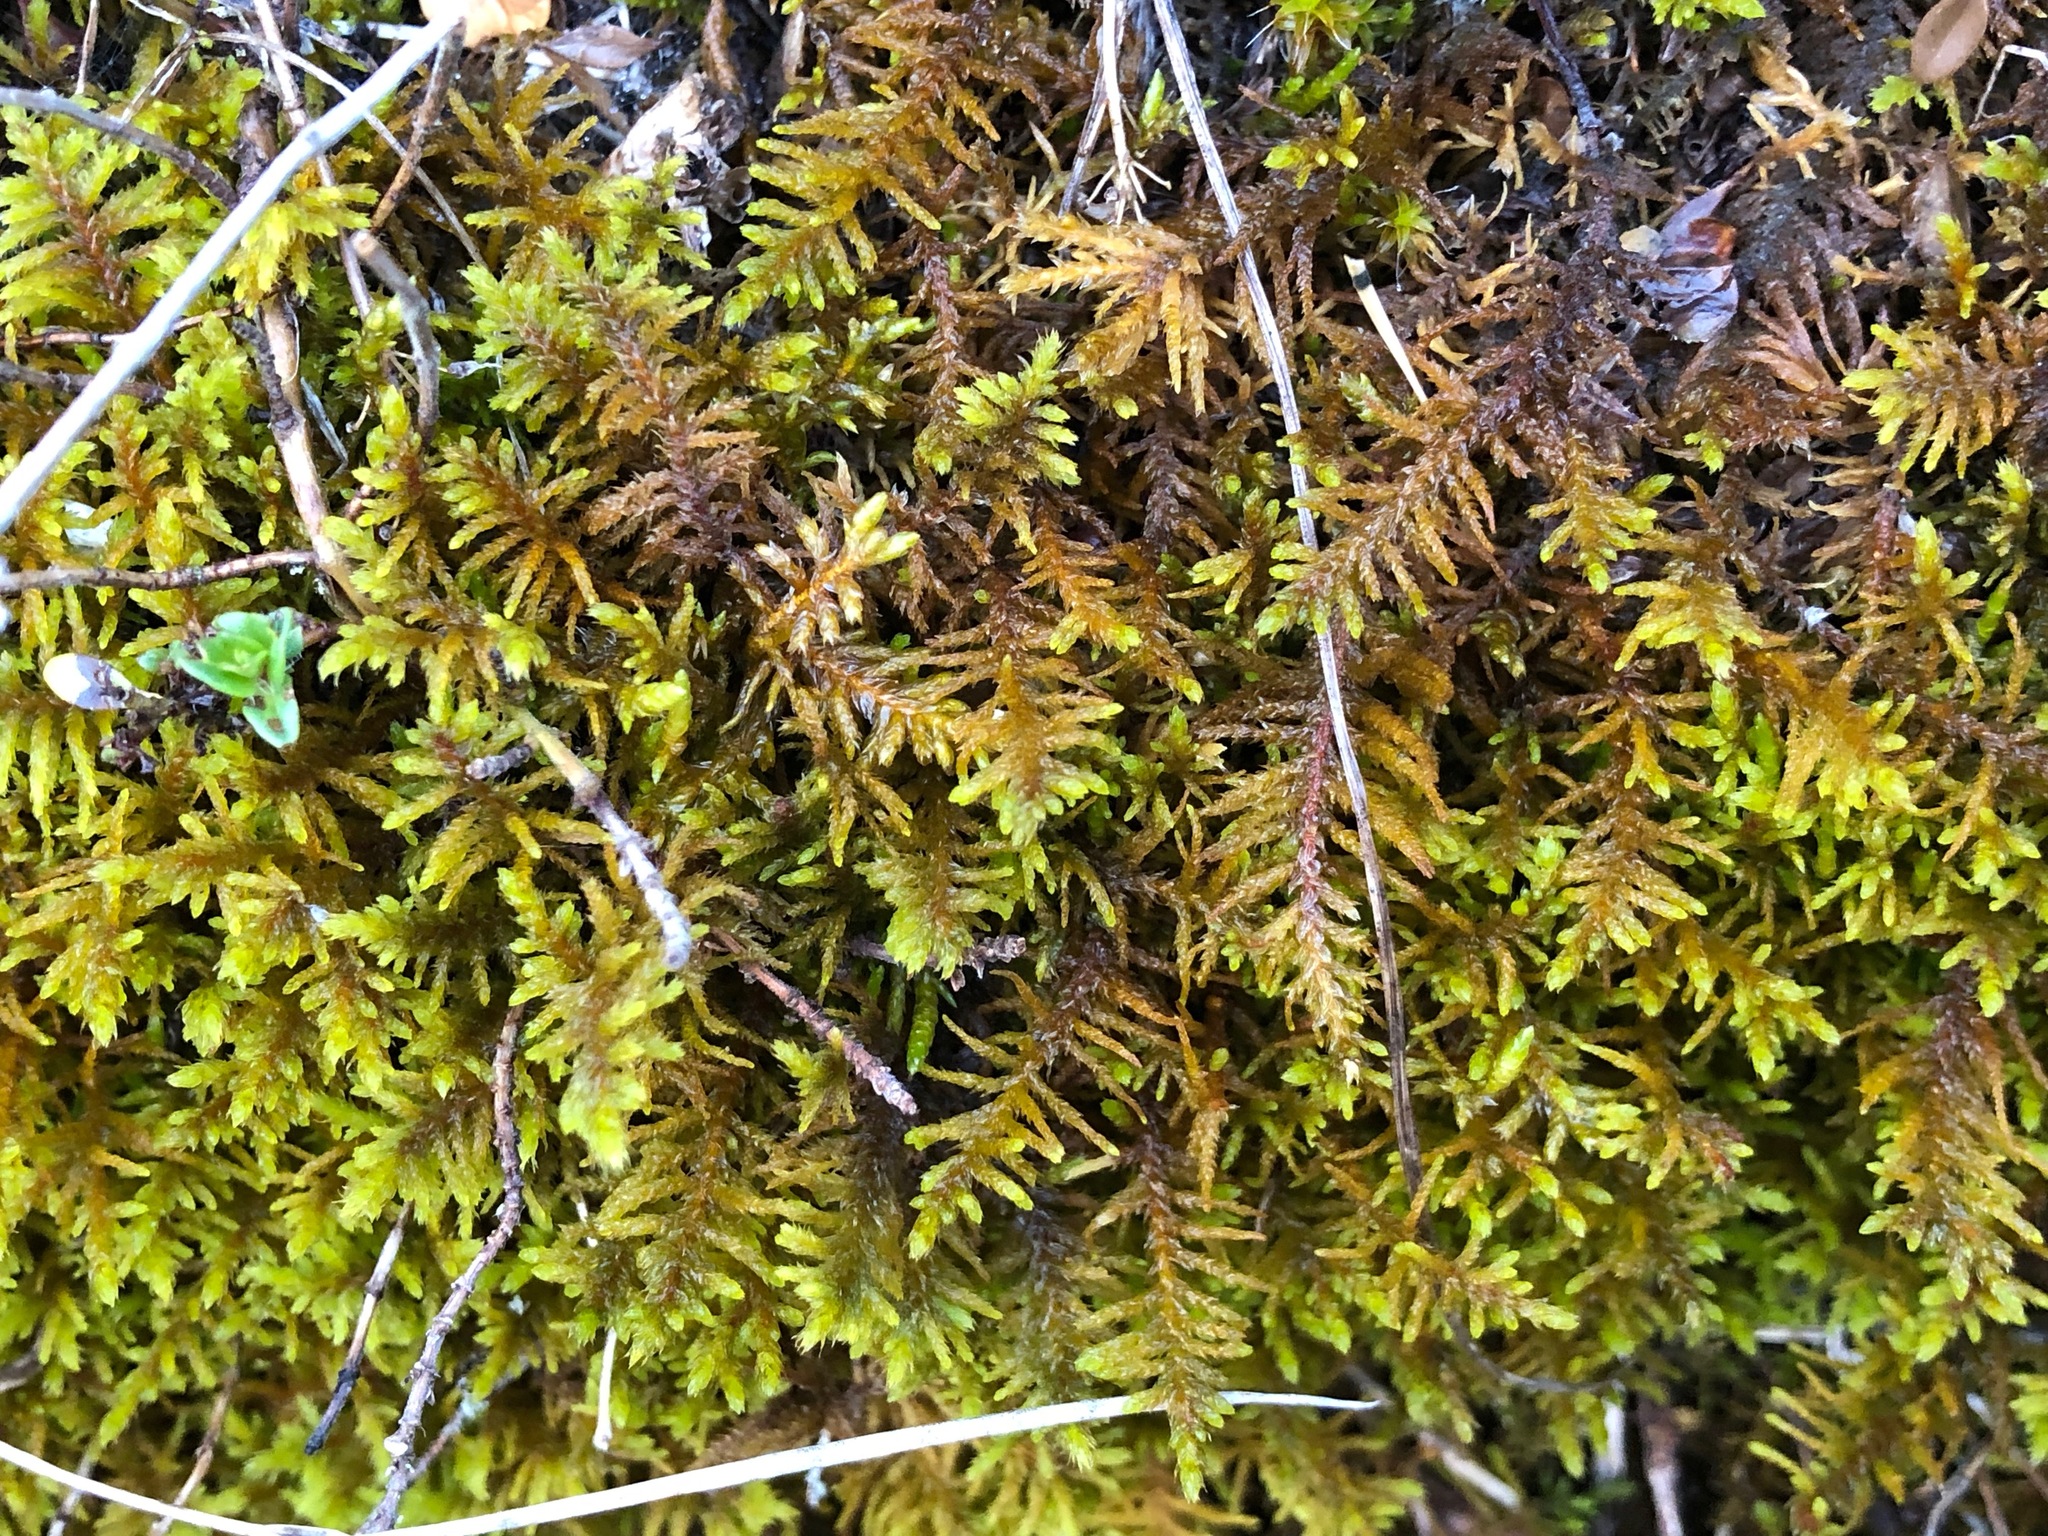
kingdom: Plantae
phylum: Bryophyta
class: Bryopsida
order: Hypnales
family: Thuidiaceae
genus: Abietinella
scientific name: Abietinella abietina
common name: Wiry fern moss
